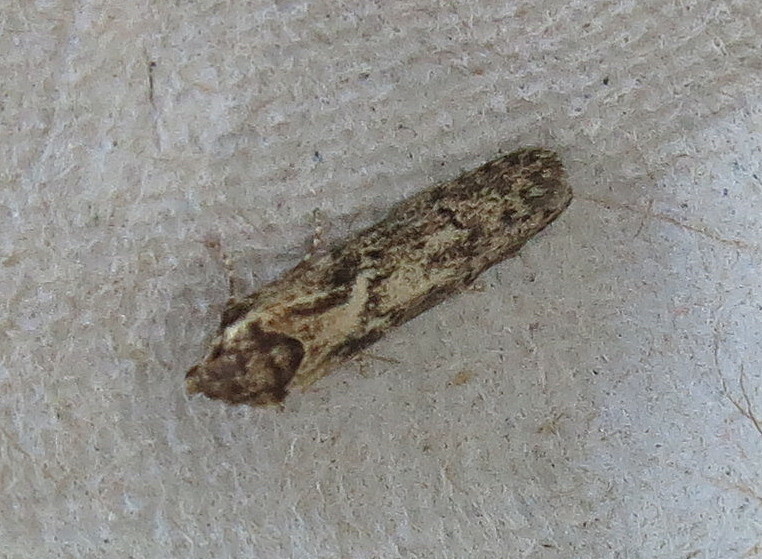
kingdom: Animalia
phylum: Arthropoda
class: Insecta
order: Lepidoptera
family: Blastobasidae
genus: Blastobasis
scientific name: Blastobasis adustella
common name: Dingy dowd
